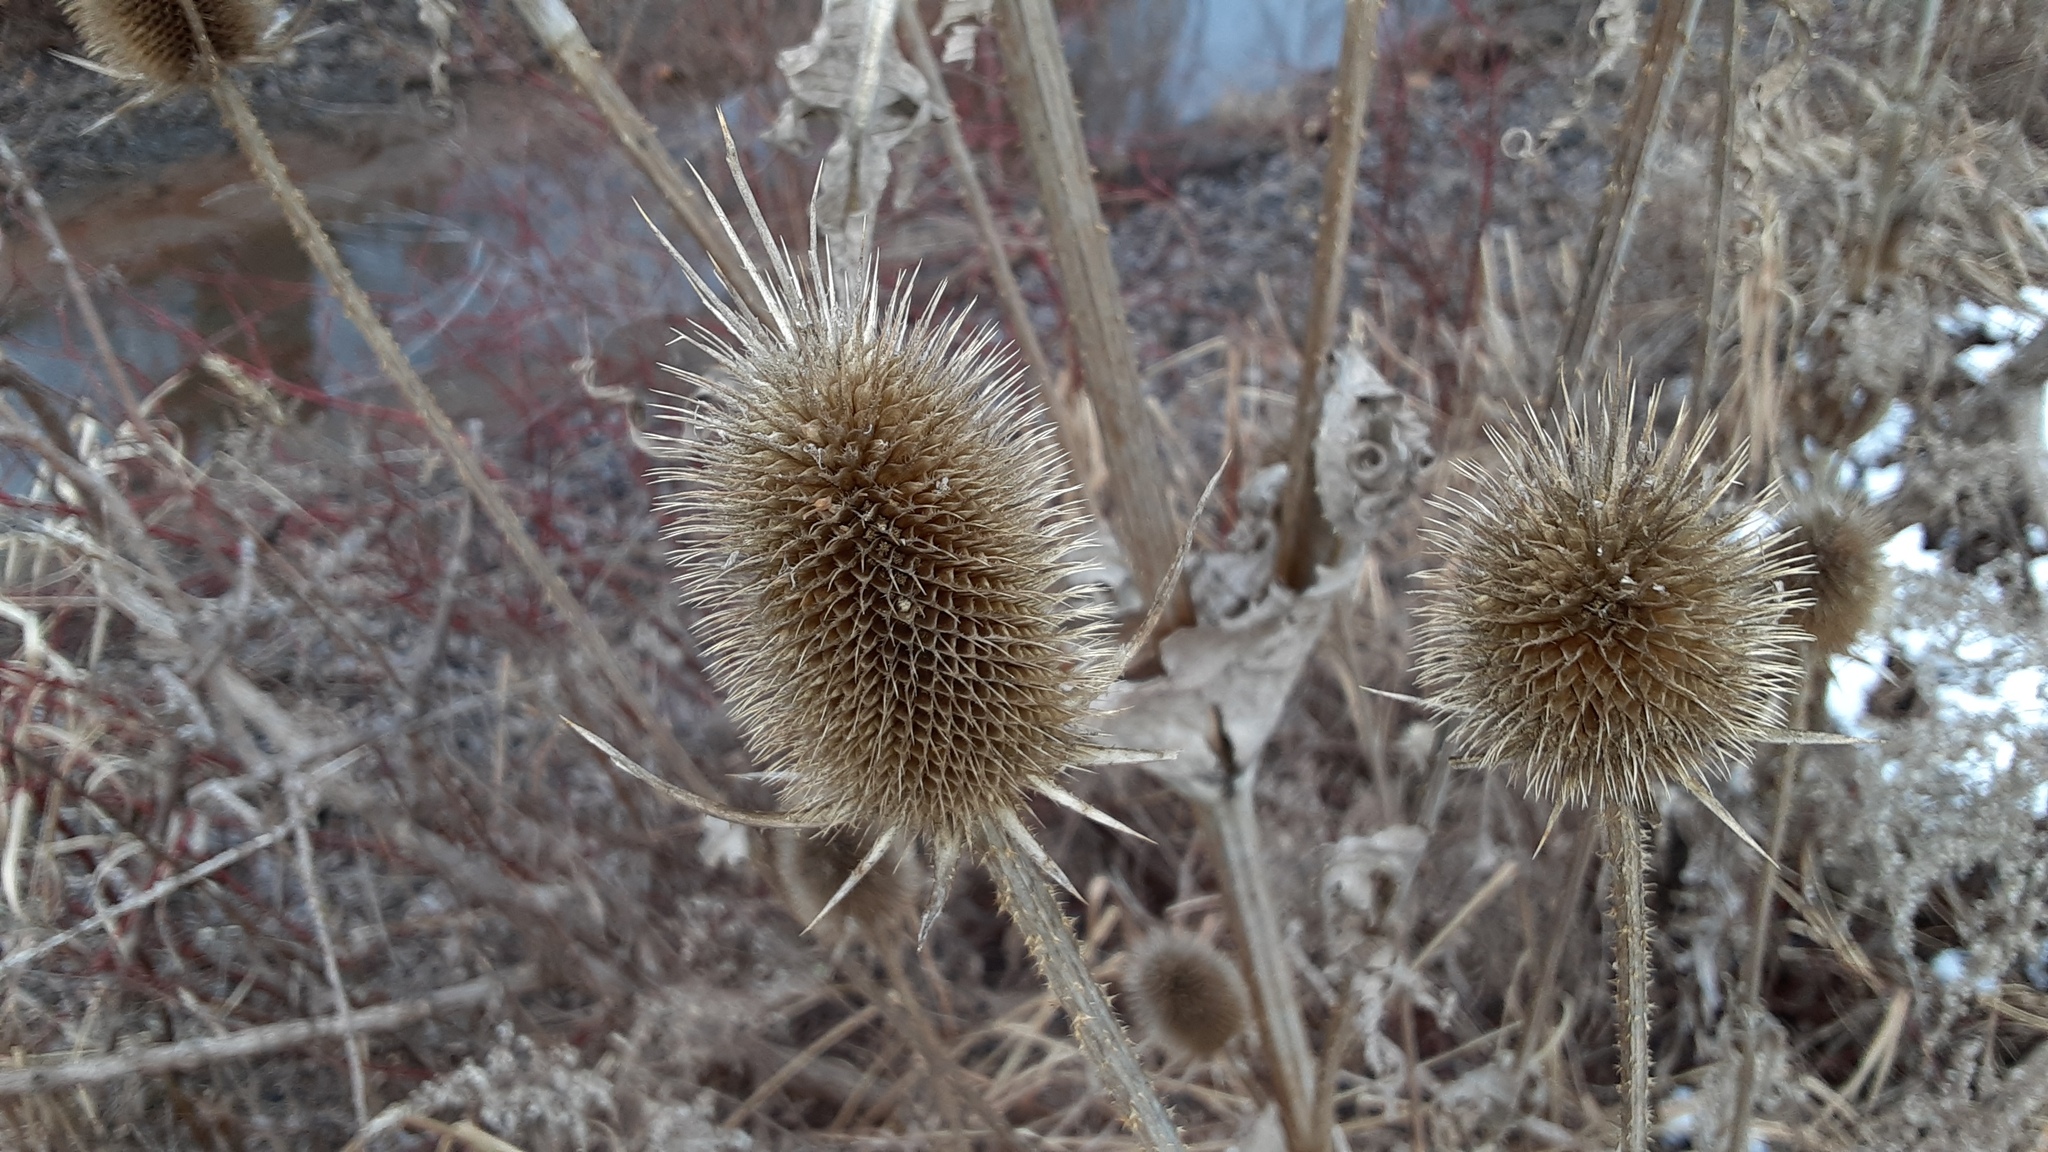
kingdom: Plantae
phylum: Tracheophyta
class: Magnoliopsida
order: Dipsacales
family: Caprifoliaceae
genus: Dipsacus
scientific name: Dipsacus laciniatus
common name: Cut-leaved teasel
